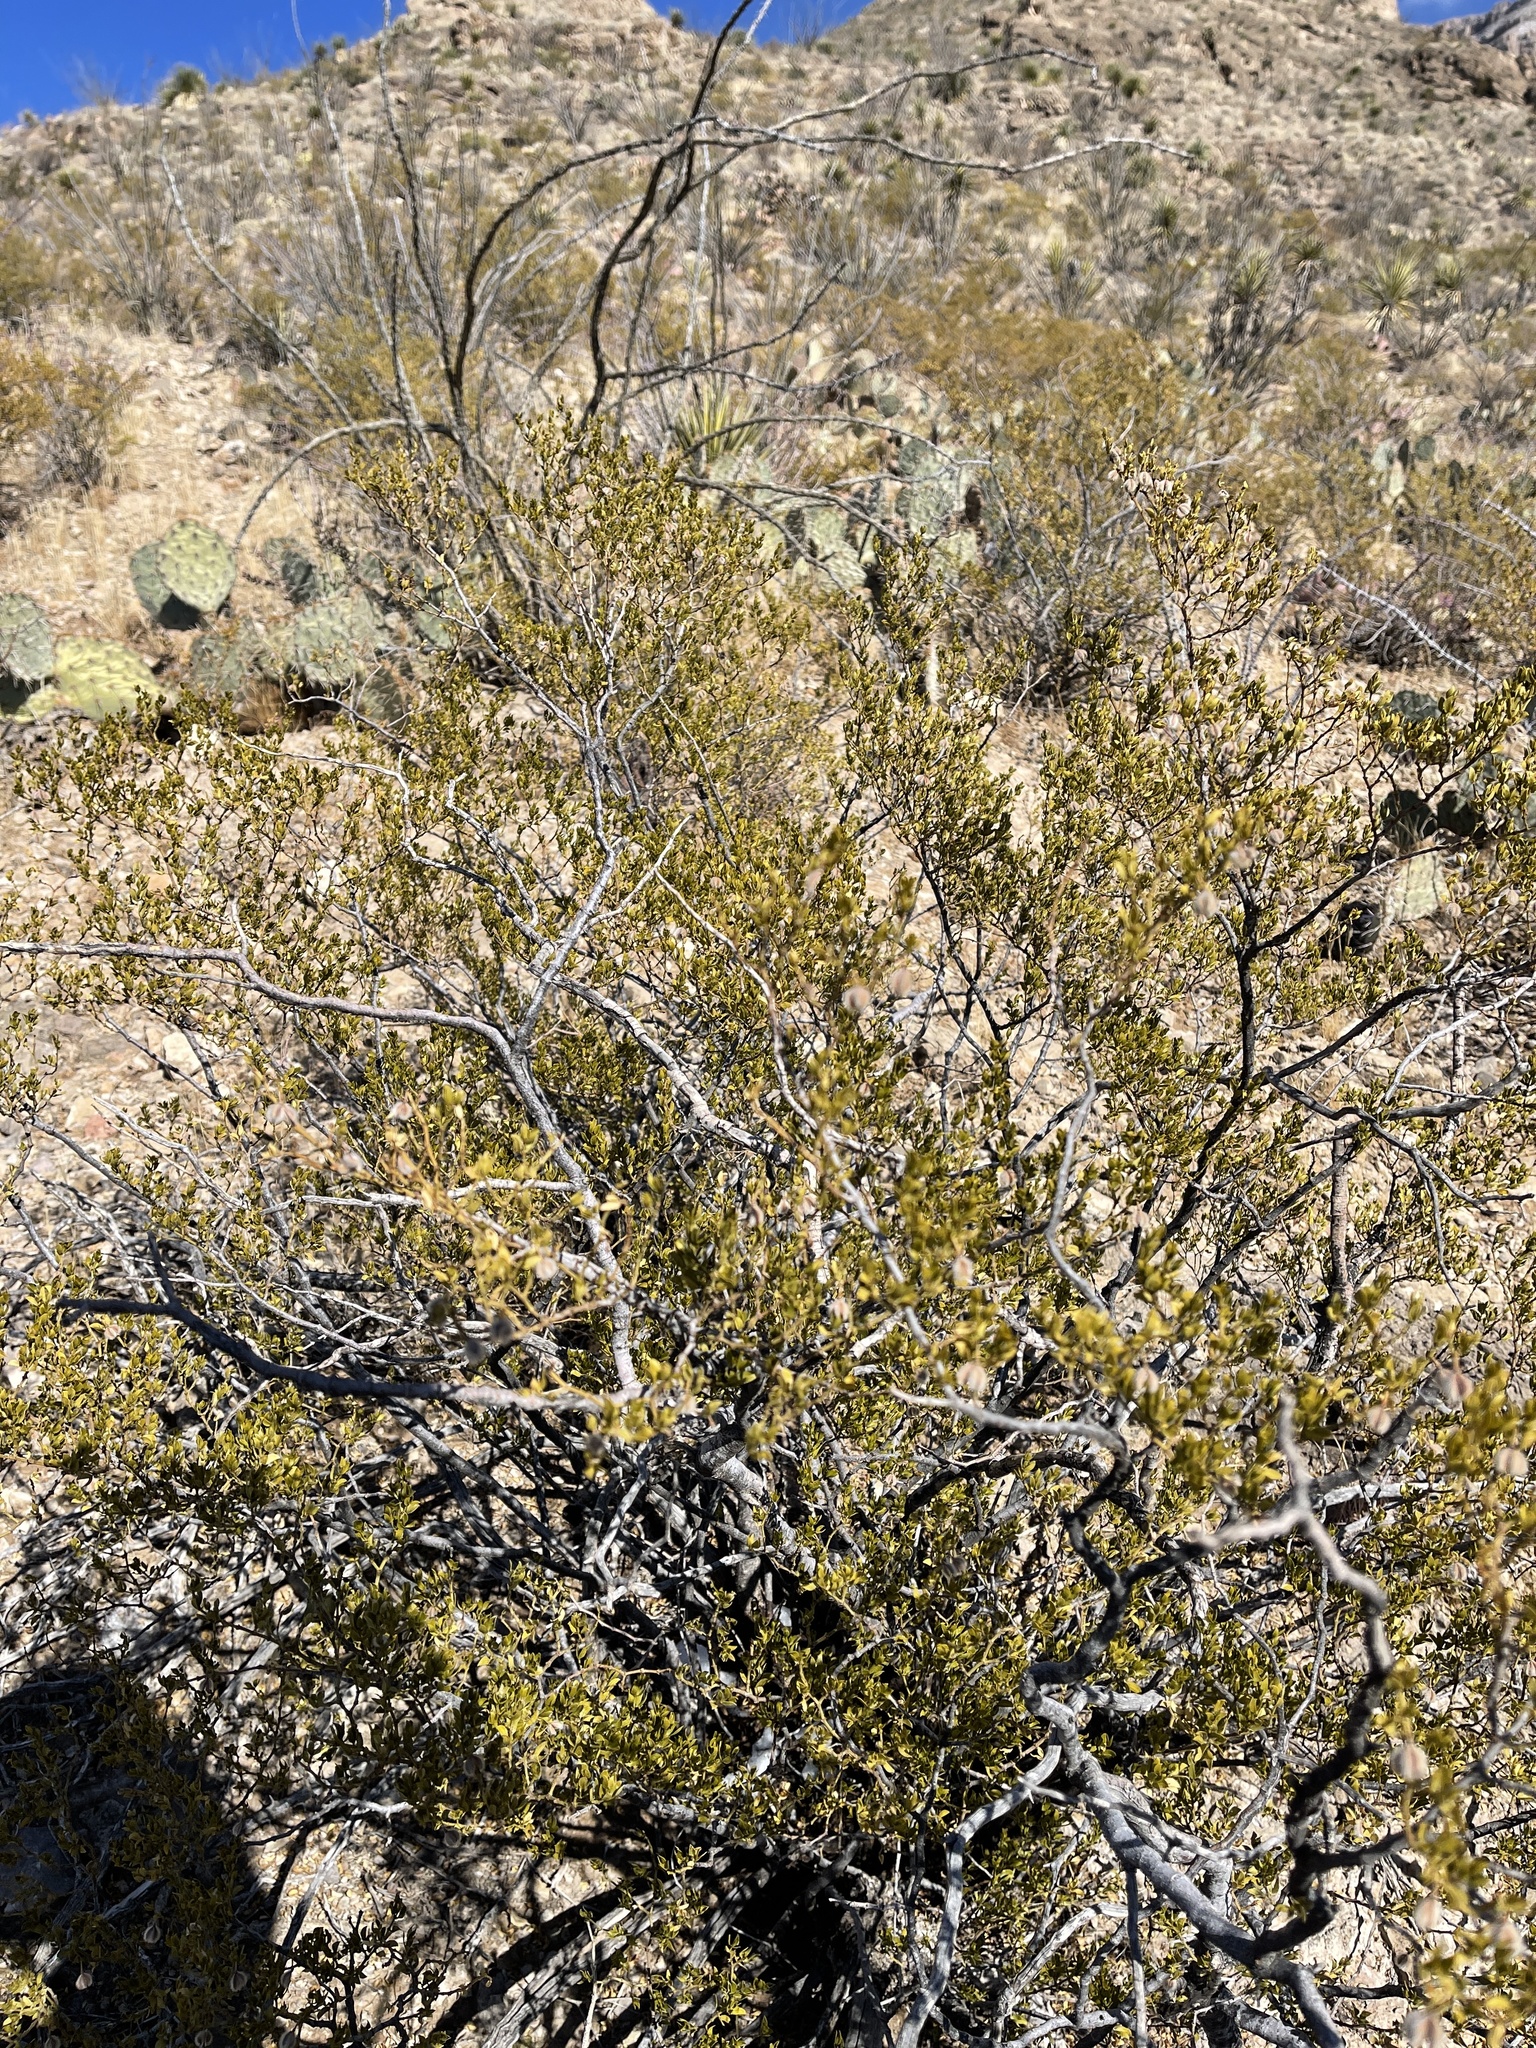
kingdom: Plantae
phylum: Tracheophyta
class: Magnoliopsida
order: Zygophyllales
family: Zygophyllaceae
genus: Larrea
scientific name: Larrea tridentata
